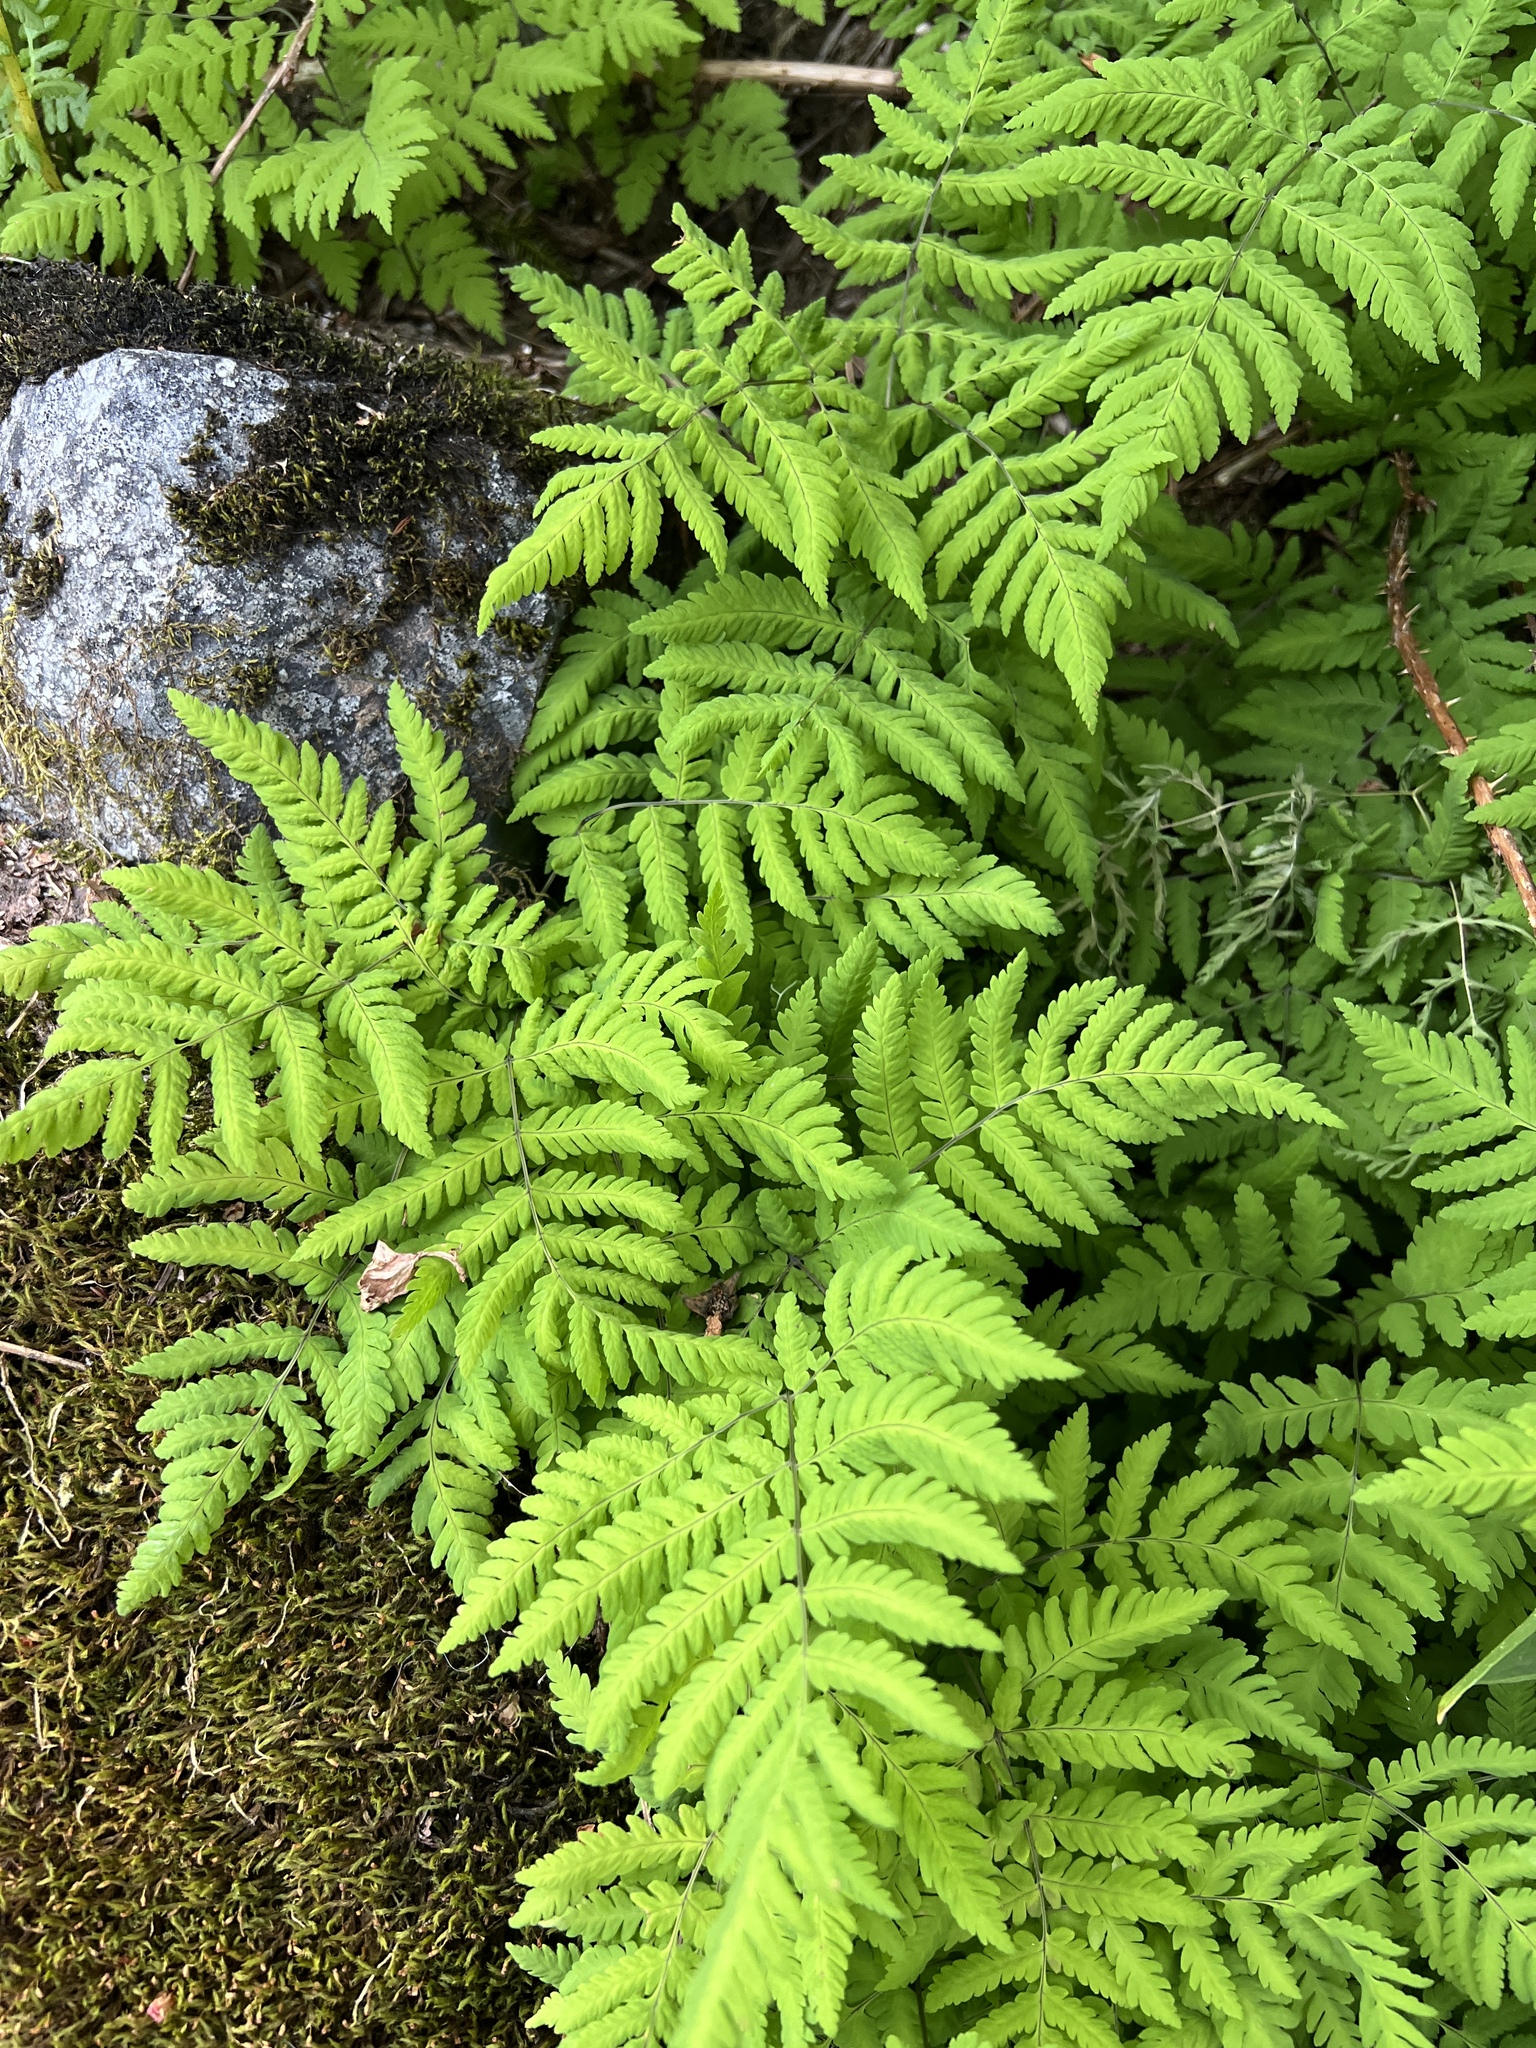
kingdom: Plantae
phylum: Tracheophyta
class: Polypodiopsida
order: Polypodiales
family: Cystopteridaceae
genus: Gymnocarpium
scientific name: Gymnocarpium disjunctum
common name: Western oak fern
